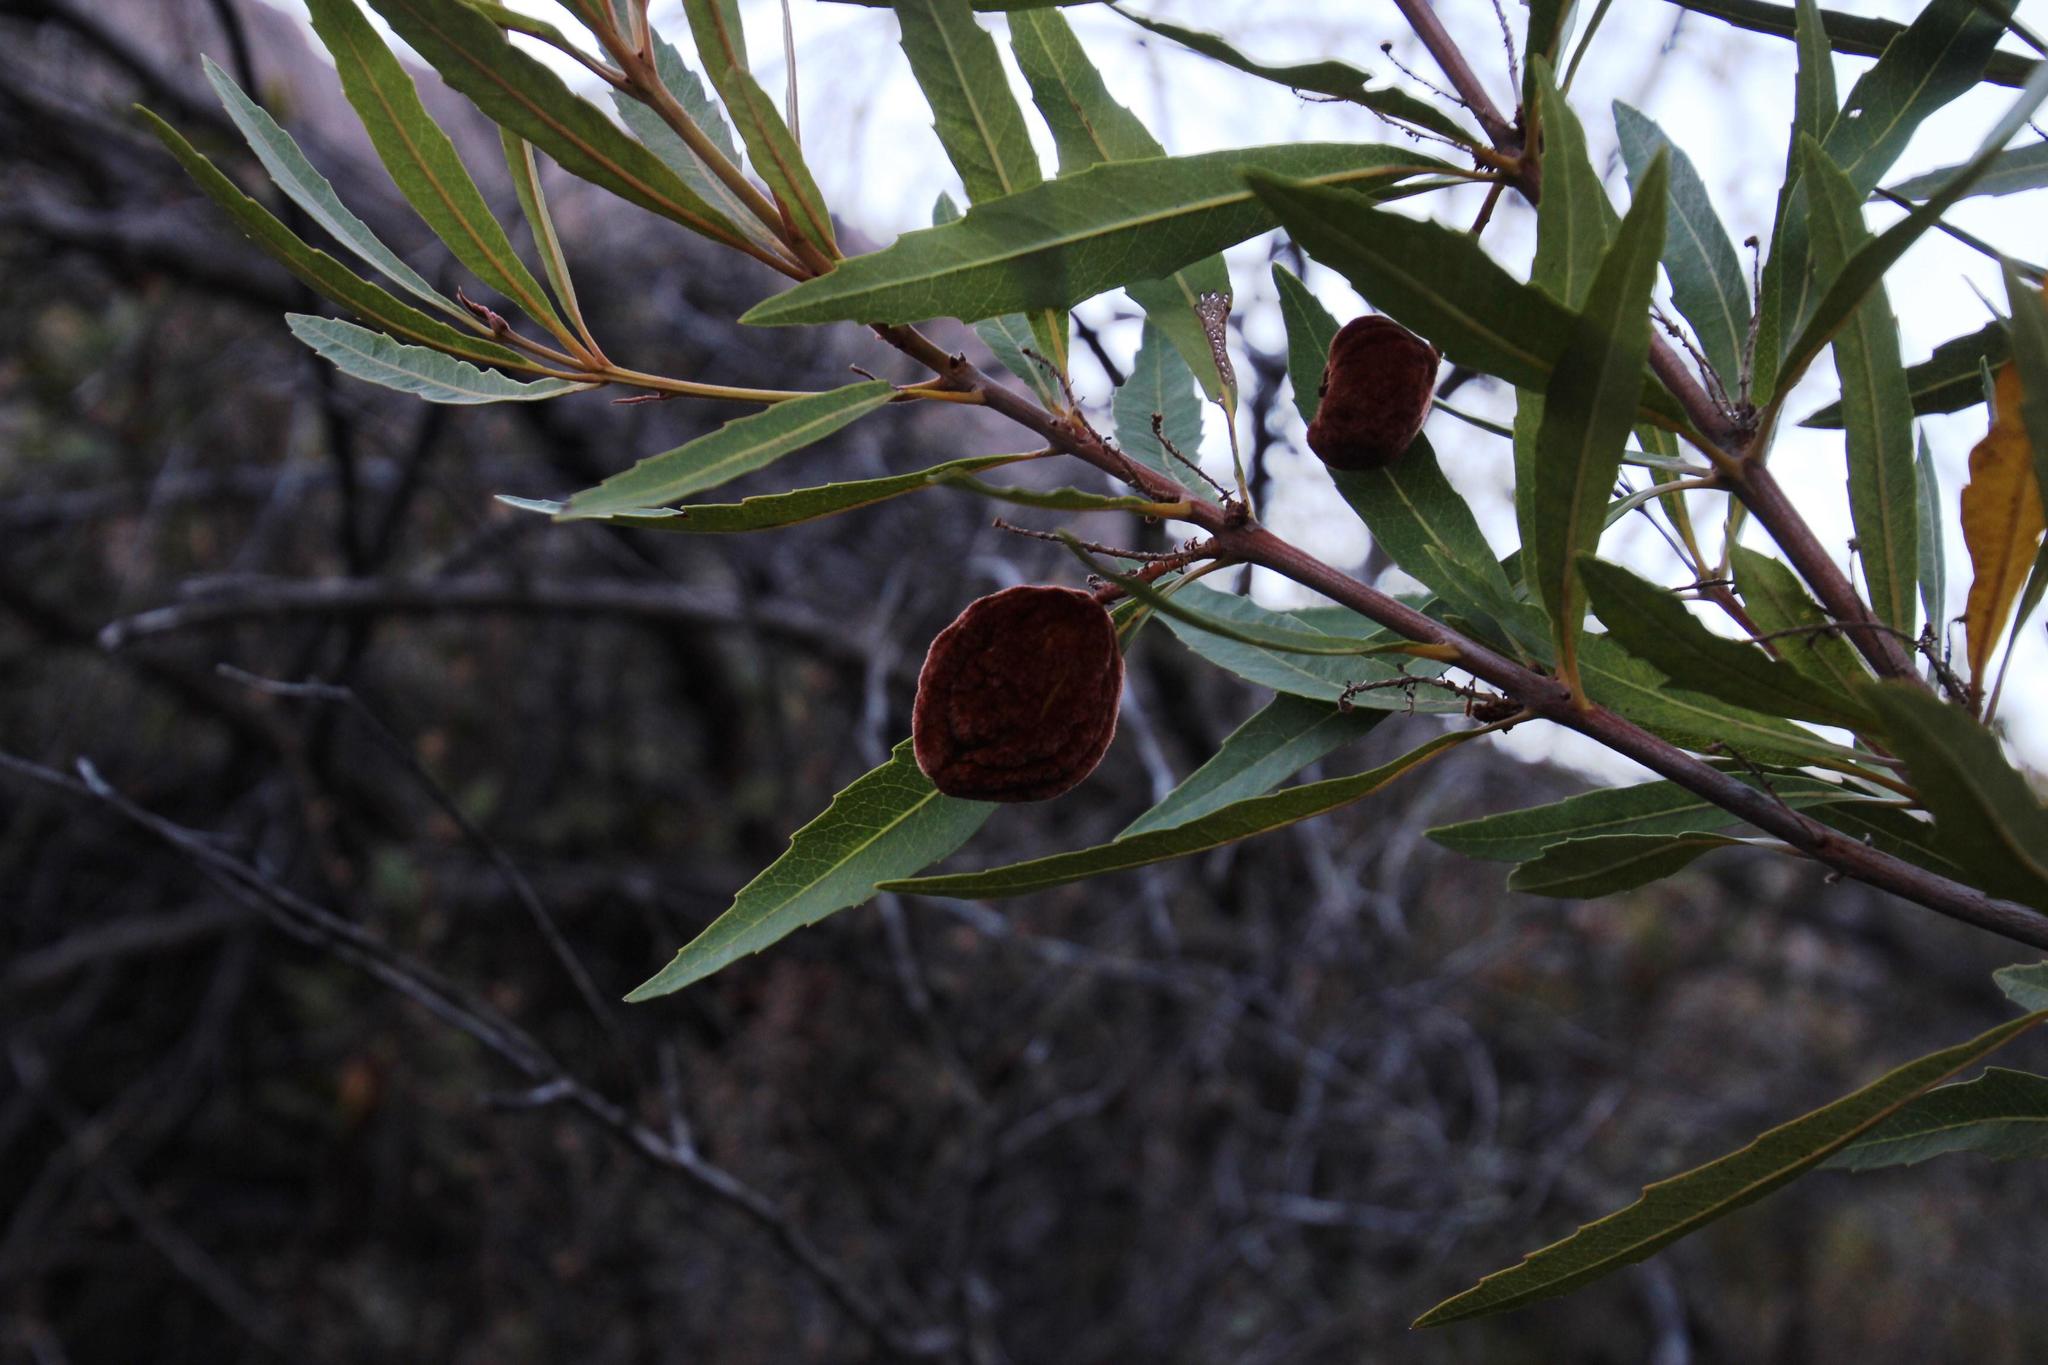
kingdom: Plantae
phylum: Tracheophyta
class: Magnoliopsida
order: Proteales
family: Proteaceae
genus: Brabejum
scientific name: Brabejum stellatifolium
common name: Wild almond
